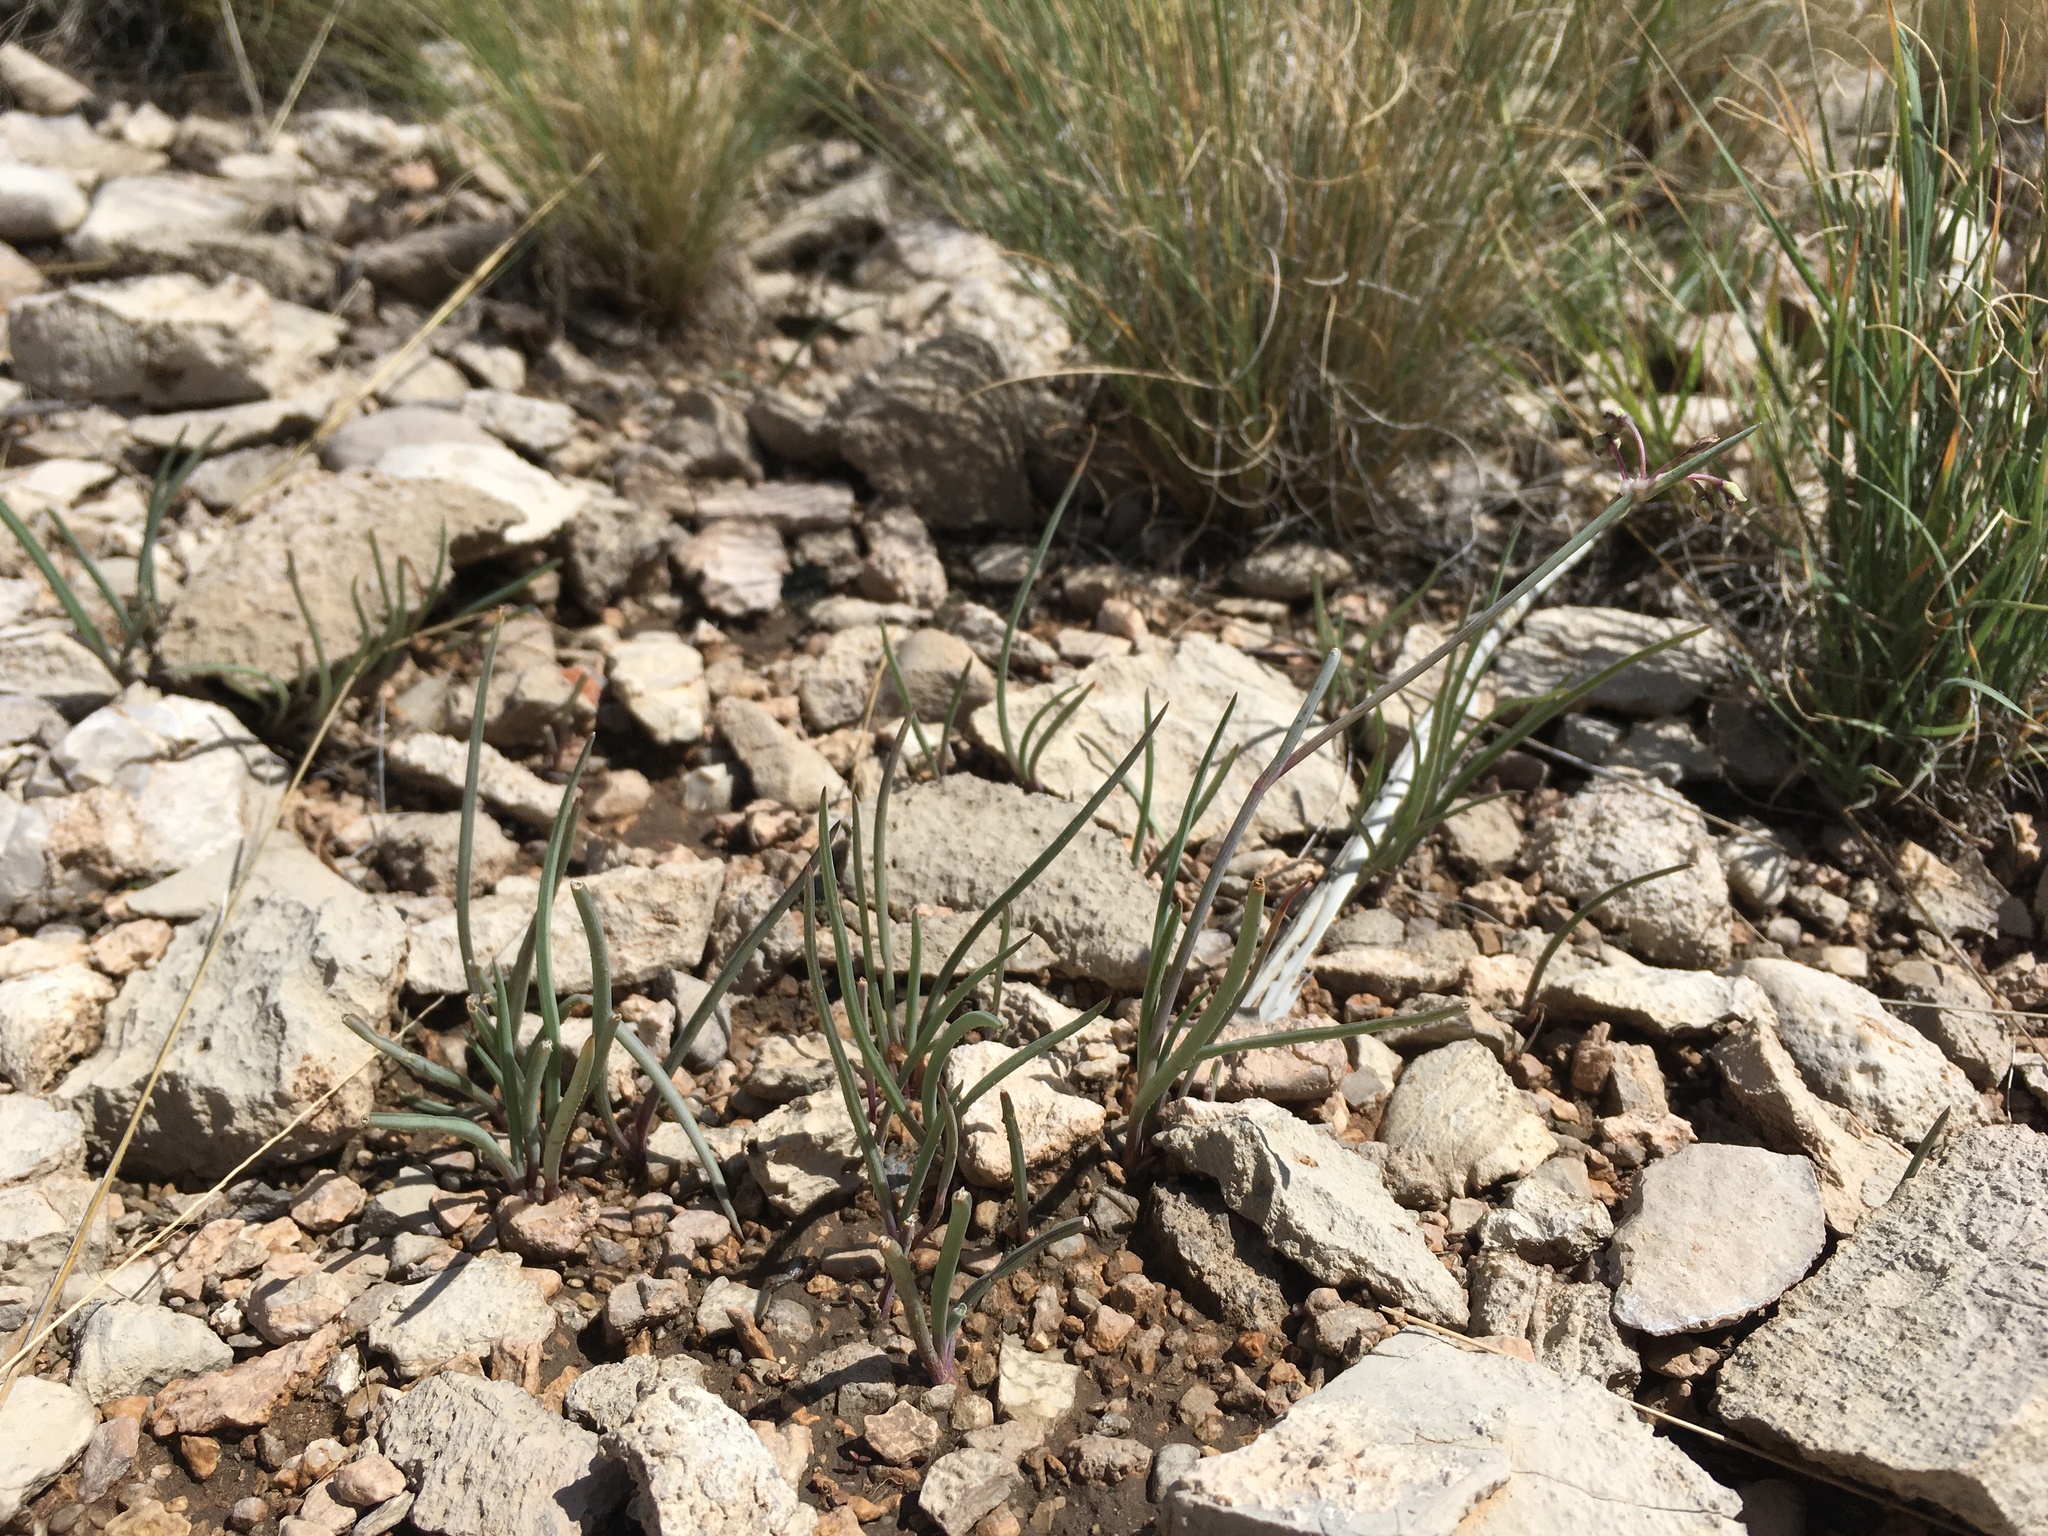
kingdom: Plantae
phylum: Tracheophyta
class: Liliopsida
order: Commelinales
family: Commelinaceae
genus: Tradescantia
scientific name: Tradescantia wrightii
